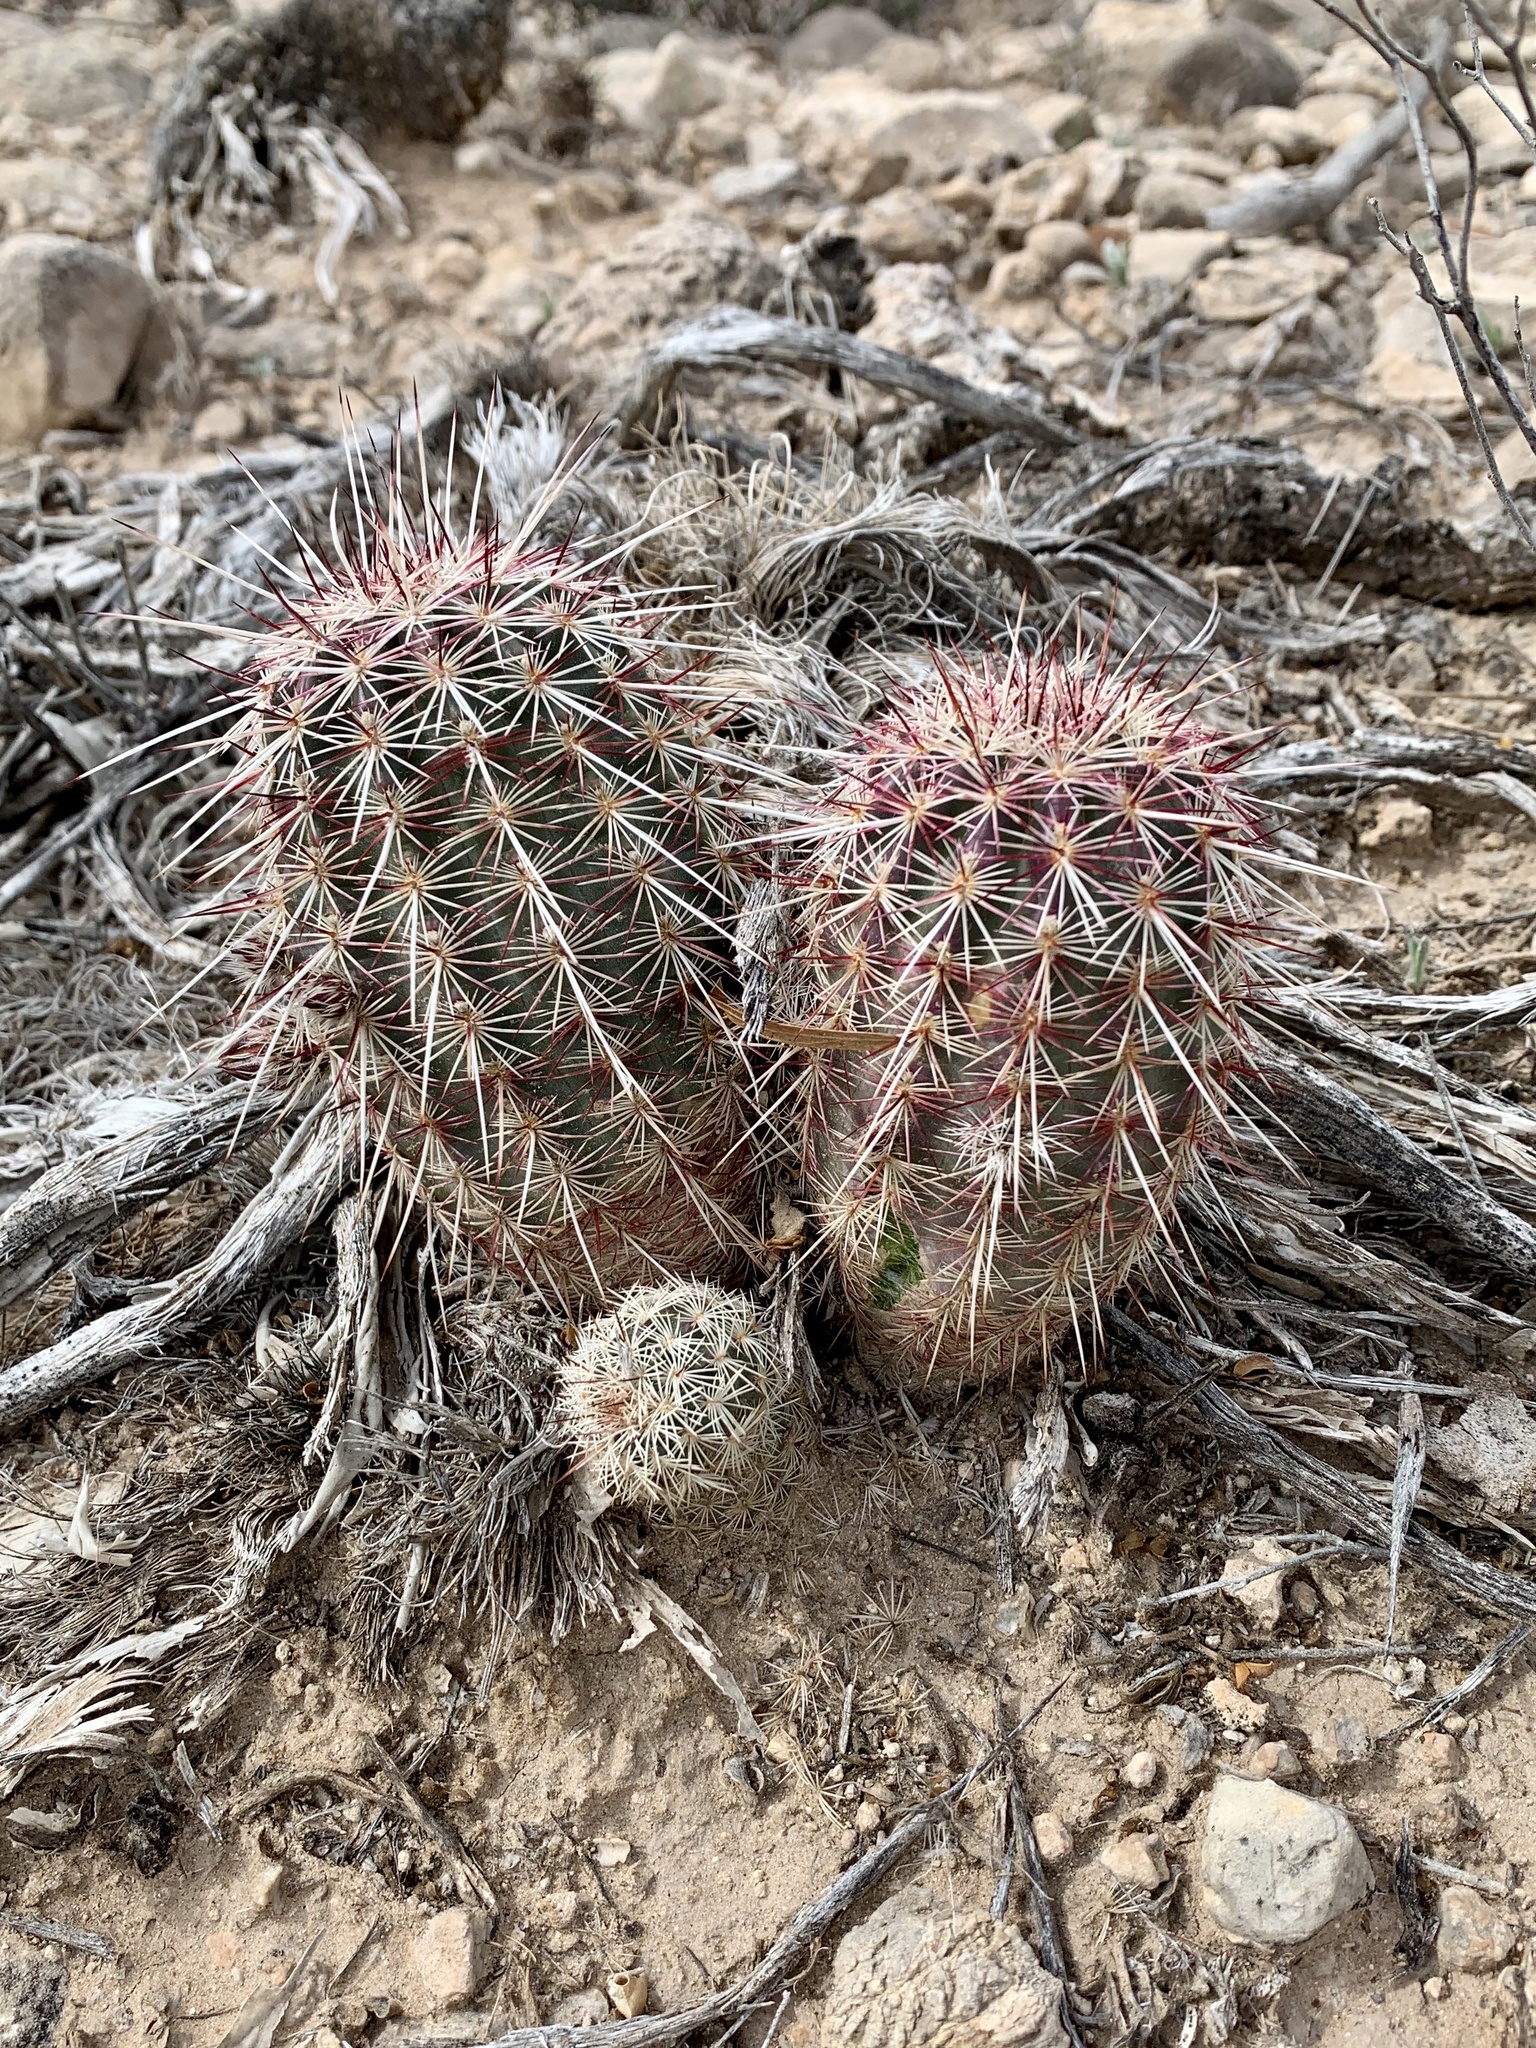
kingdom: Plantae
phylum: Tracheophyta
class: Magnoliopsida
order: Caryophyllales
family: Cactaceae
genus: Echinocereus
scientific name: Echinocereus viridiflorus
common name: Nylon hedgehog cactus
